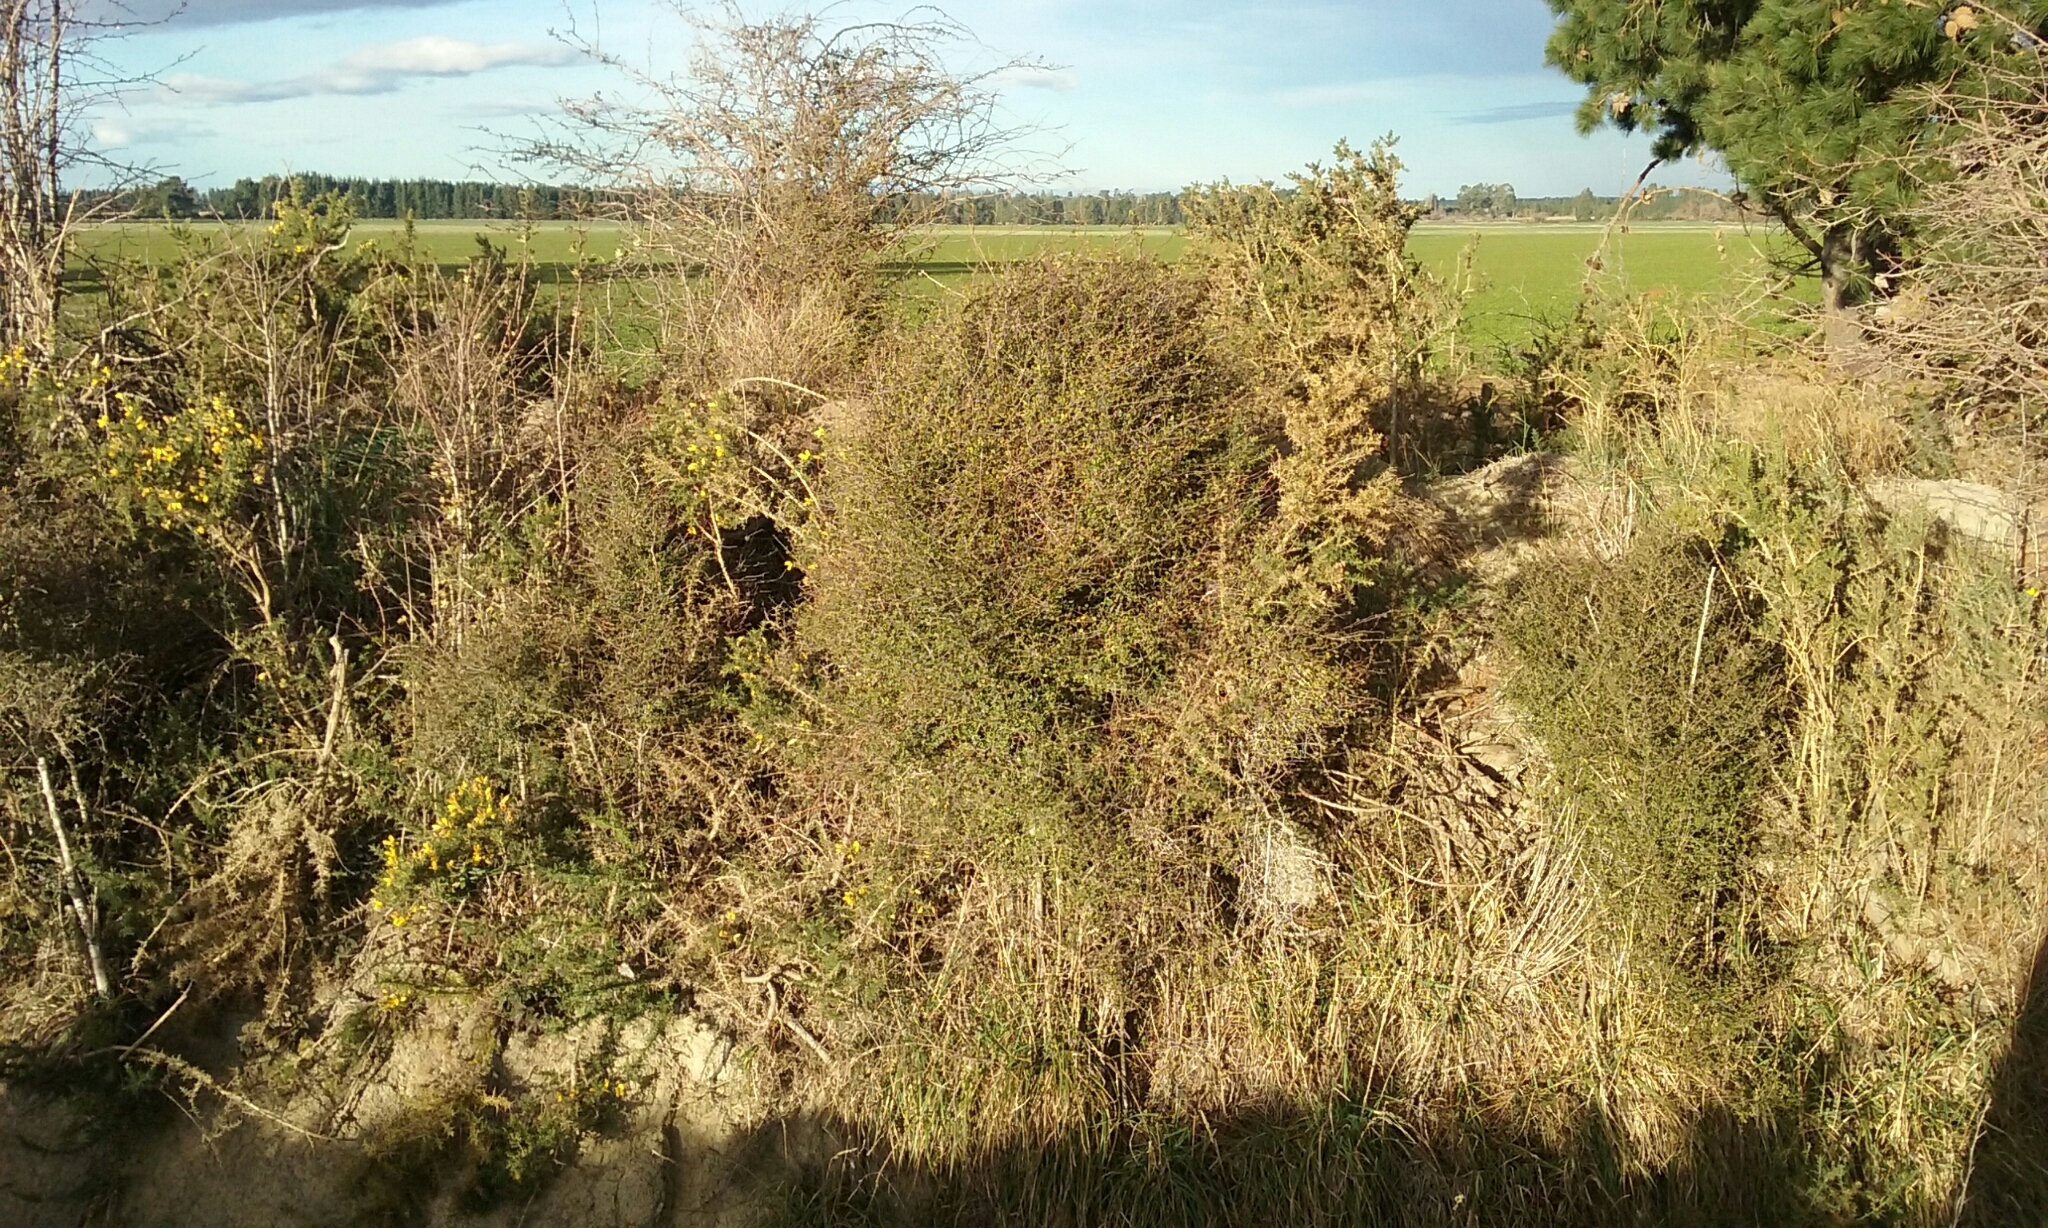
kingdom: Plantae
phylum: Tracheophyta
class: Magnoliopsida
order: Gentianales
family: Rubiaceae
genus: Coprosma
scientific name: Coprosma propinqua
